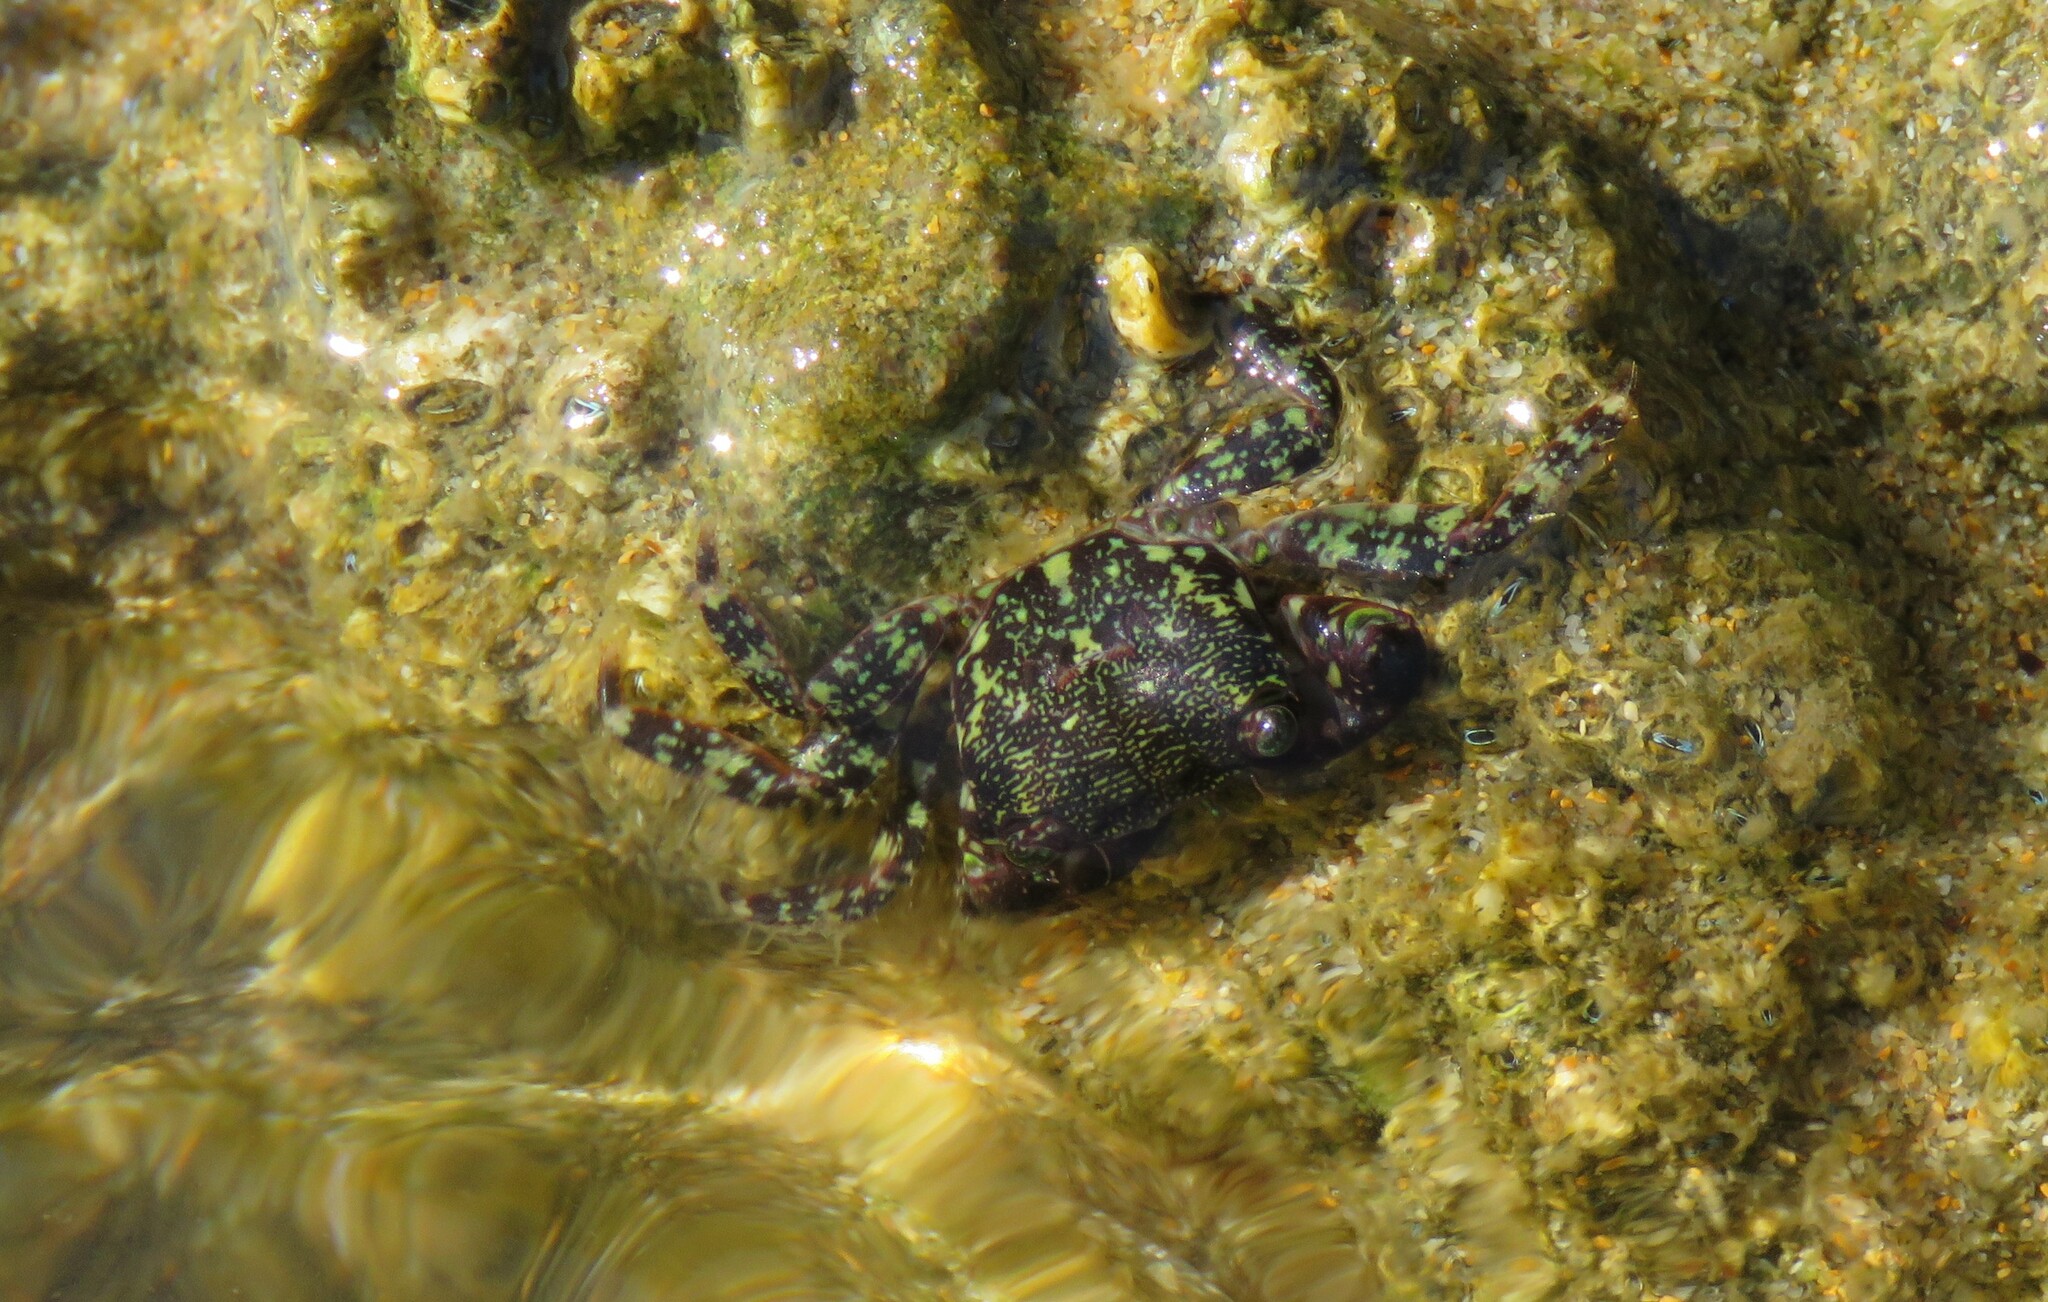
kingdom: Animalia
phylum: Arthropoda
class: Malacostraca
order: Decapoda
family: Grapsidae
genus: Pachygrapsus
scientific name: Pachygrapsus marmoratus
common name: Marbled rock crab
